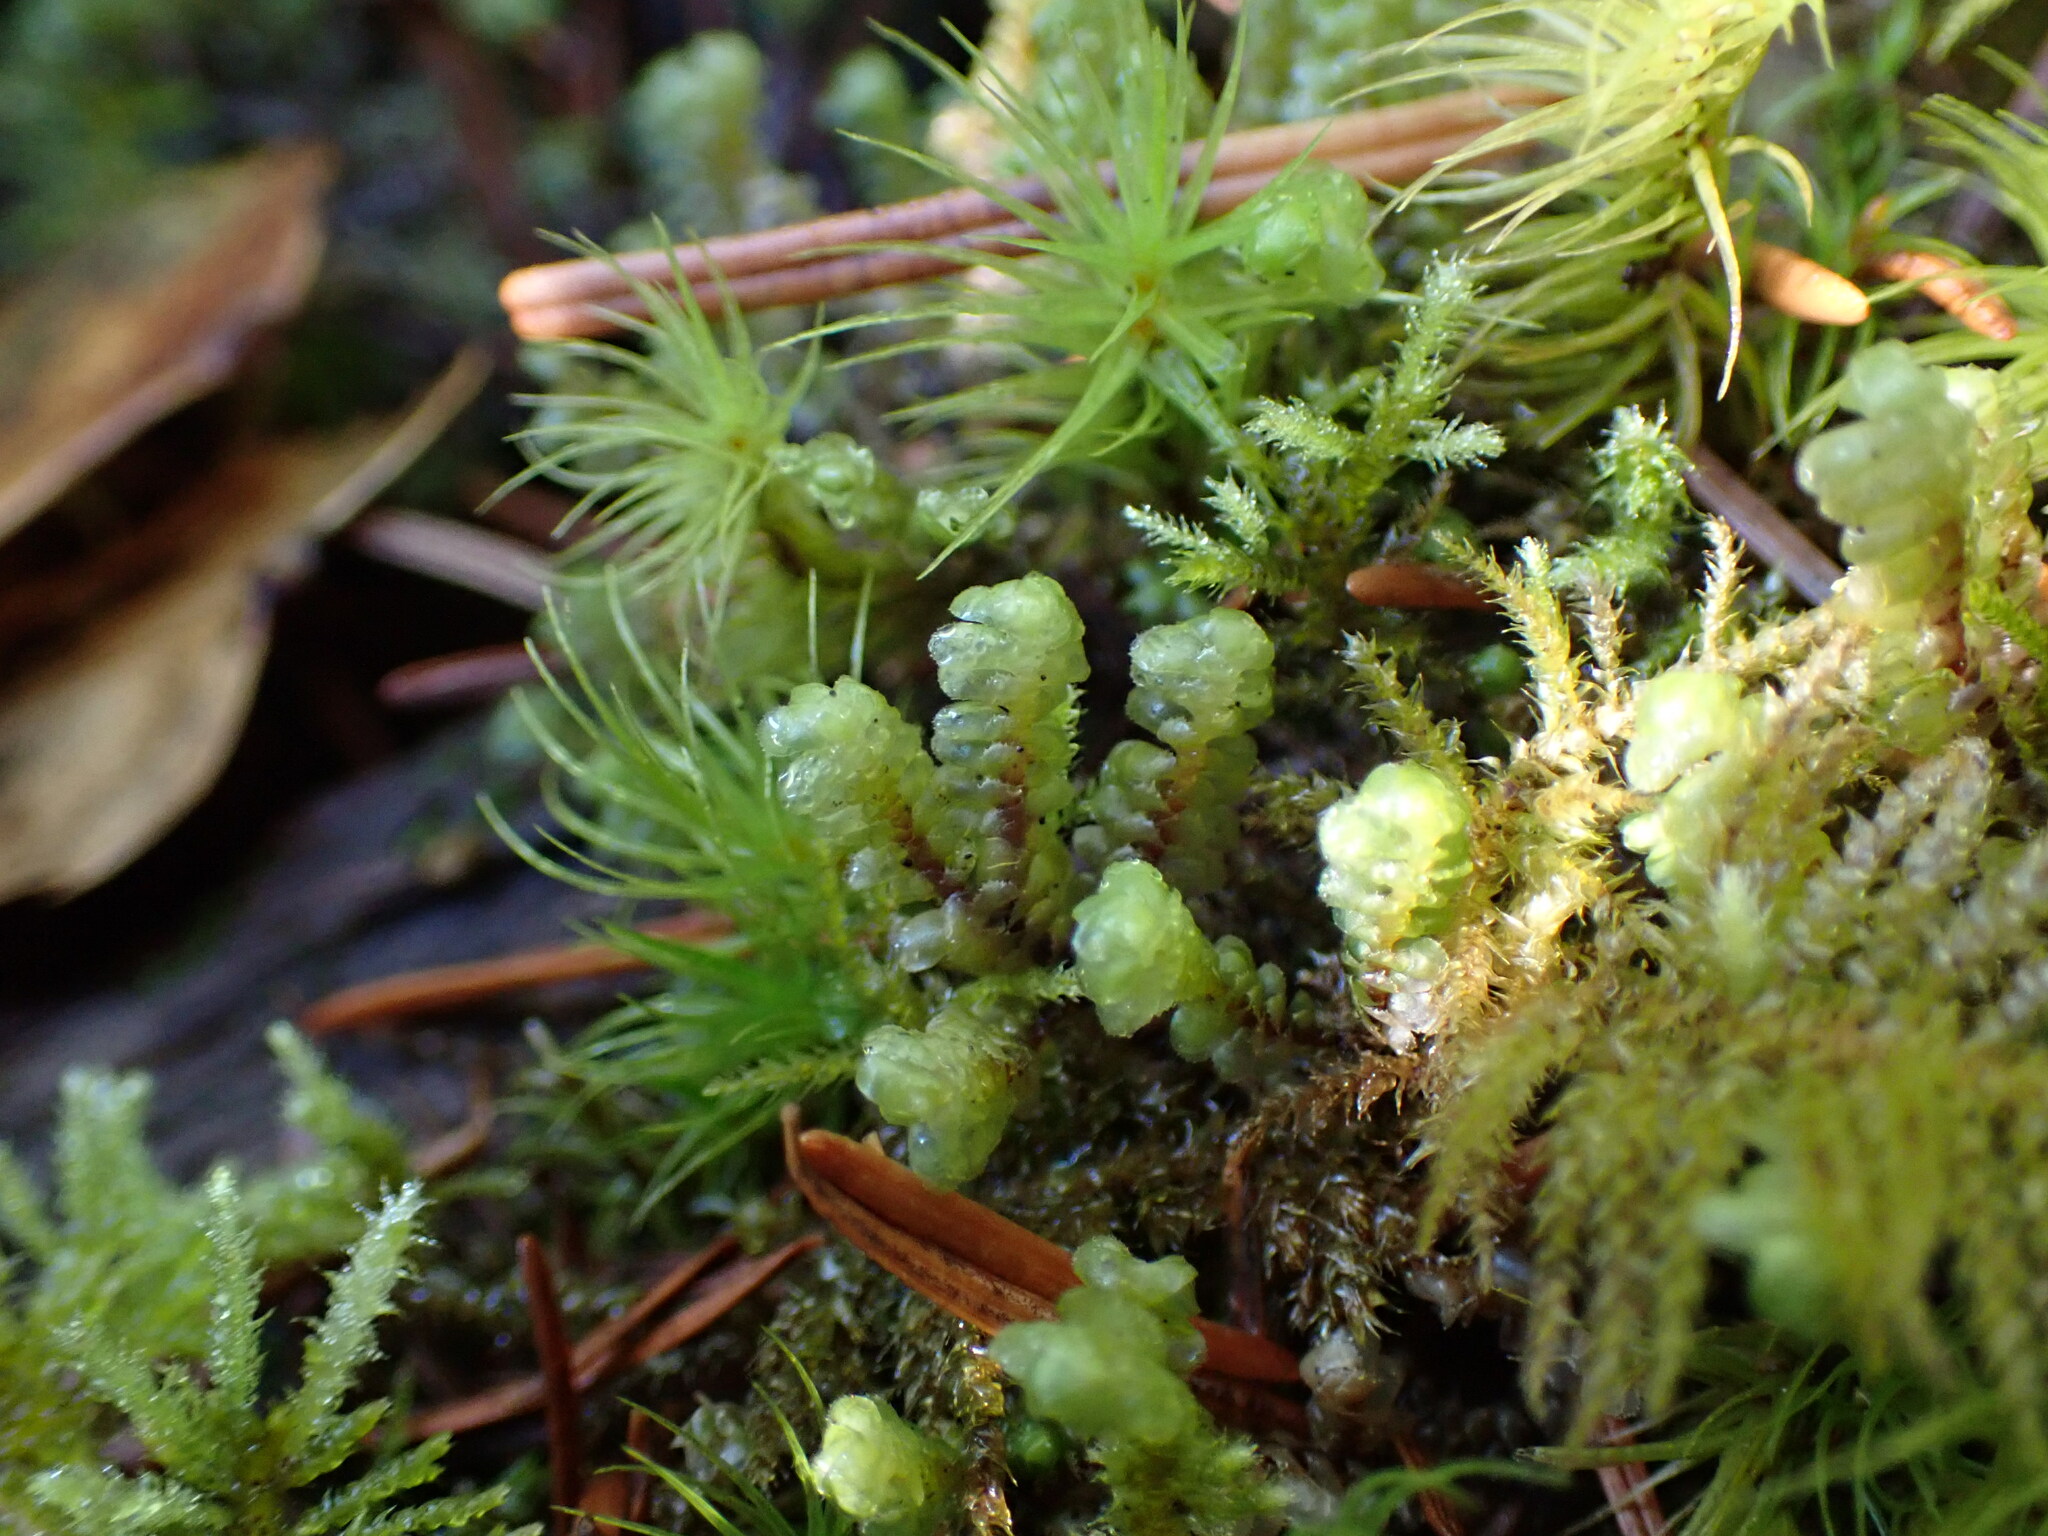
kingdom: Plantae
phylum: Marchantiophyta
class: Jungermanniopsida
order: Jungermanniales
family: Scapaniaceae
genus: Scapania
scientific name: Scapania bolanderi
